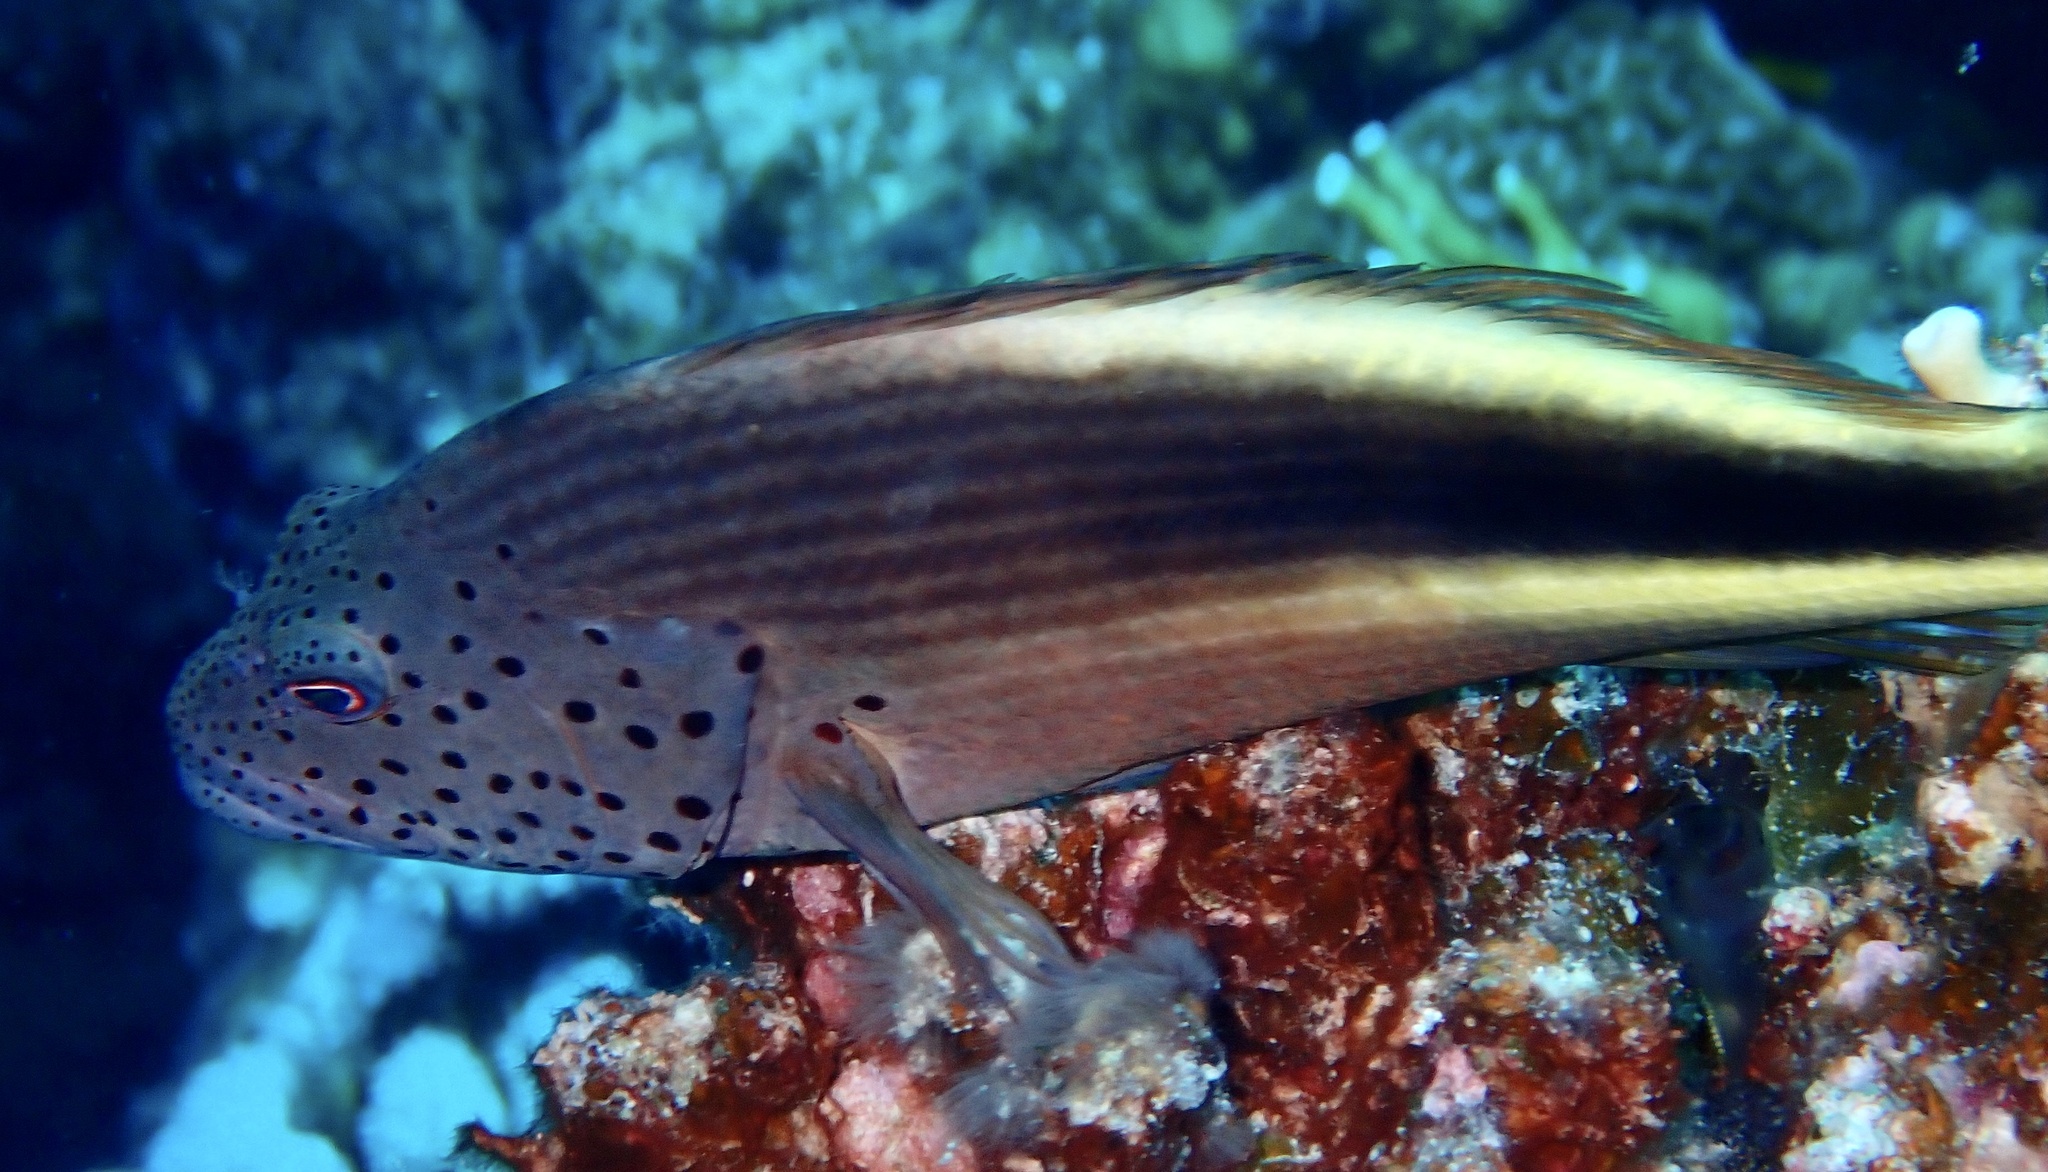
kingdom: Animalia
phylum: Chordata
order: Perciformes
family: Cirrhitidae
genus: Paracirrhites
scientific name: Paracirrhites forsteri
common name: Freckled hawkfish
